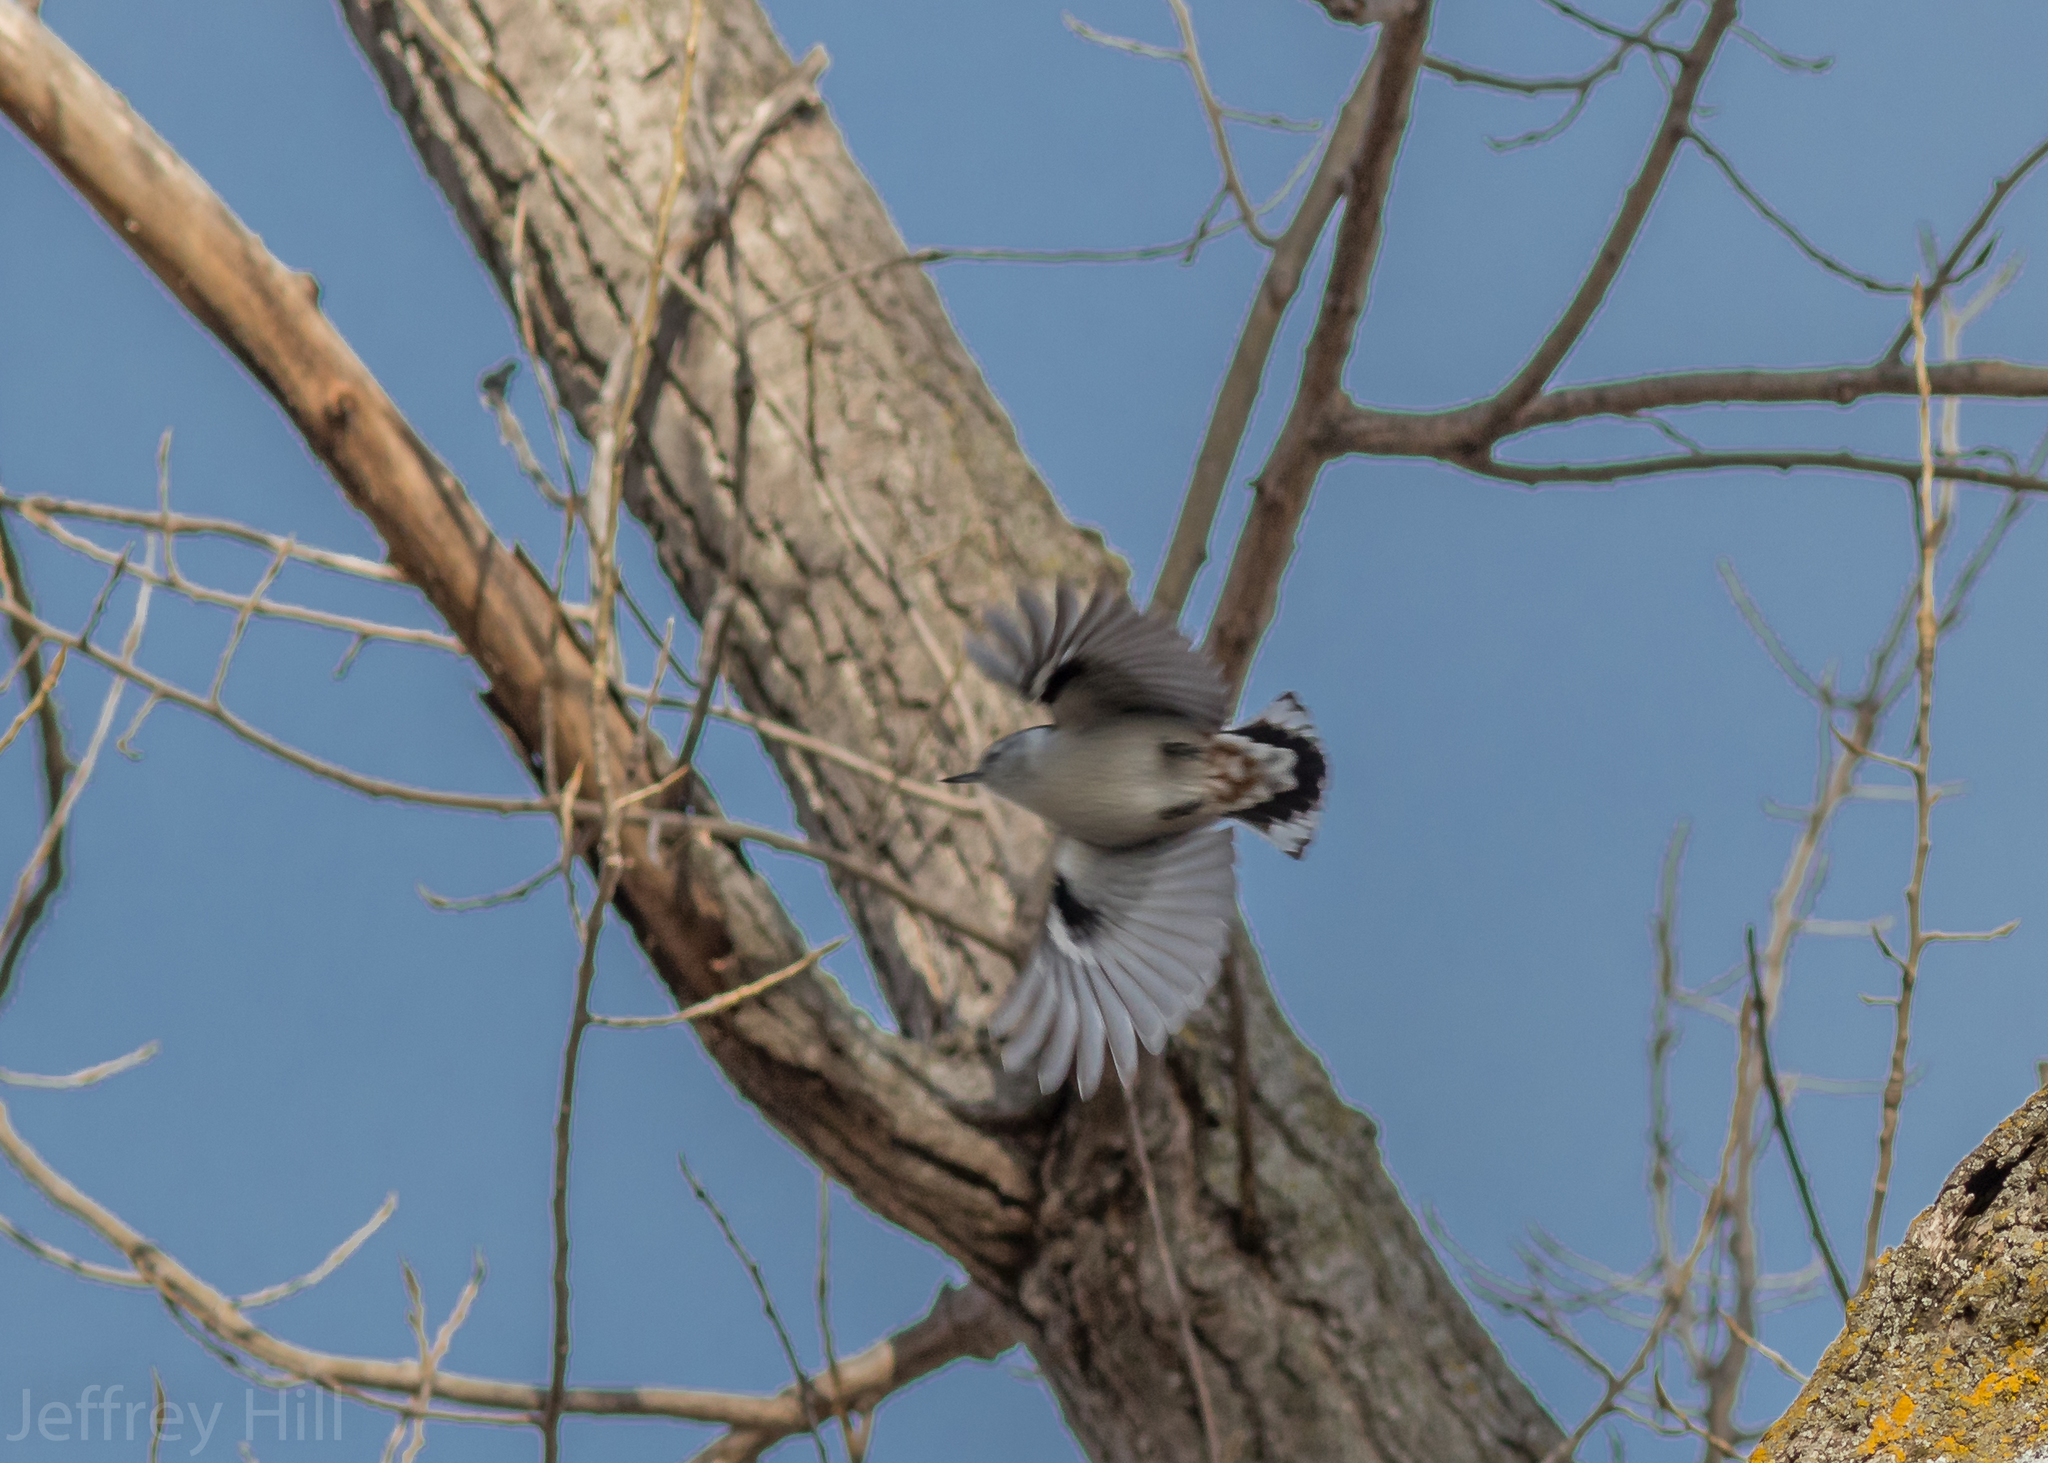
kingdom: Animalia
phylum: Chordata
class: Aves
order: Passeriformes
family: Sittidae
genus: Sitta
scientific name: Sitta carolinensis
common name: White-breasted nuthatch
